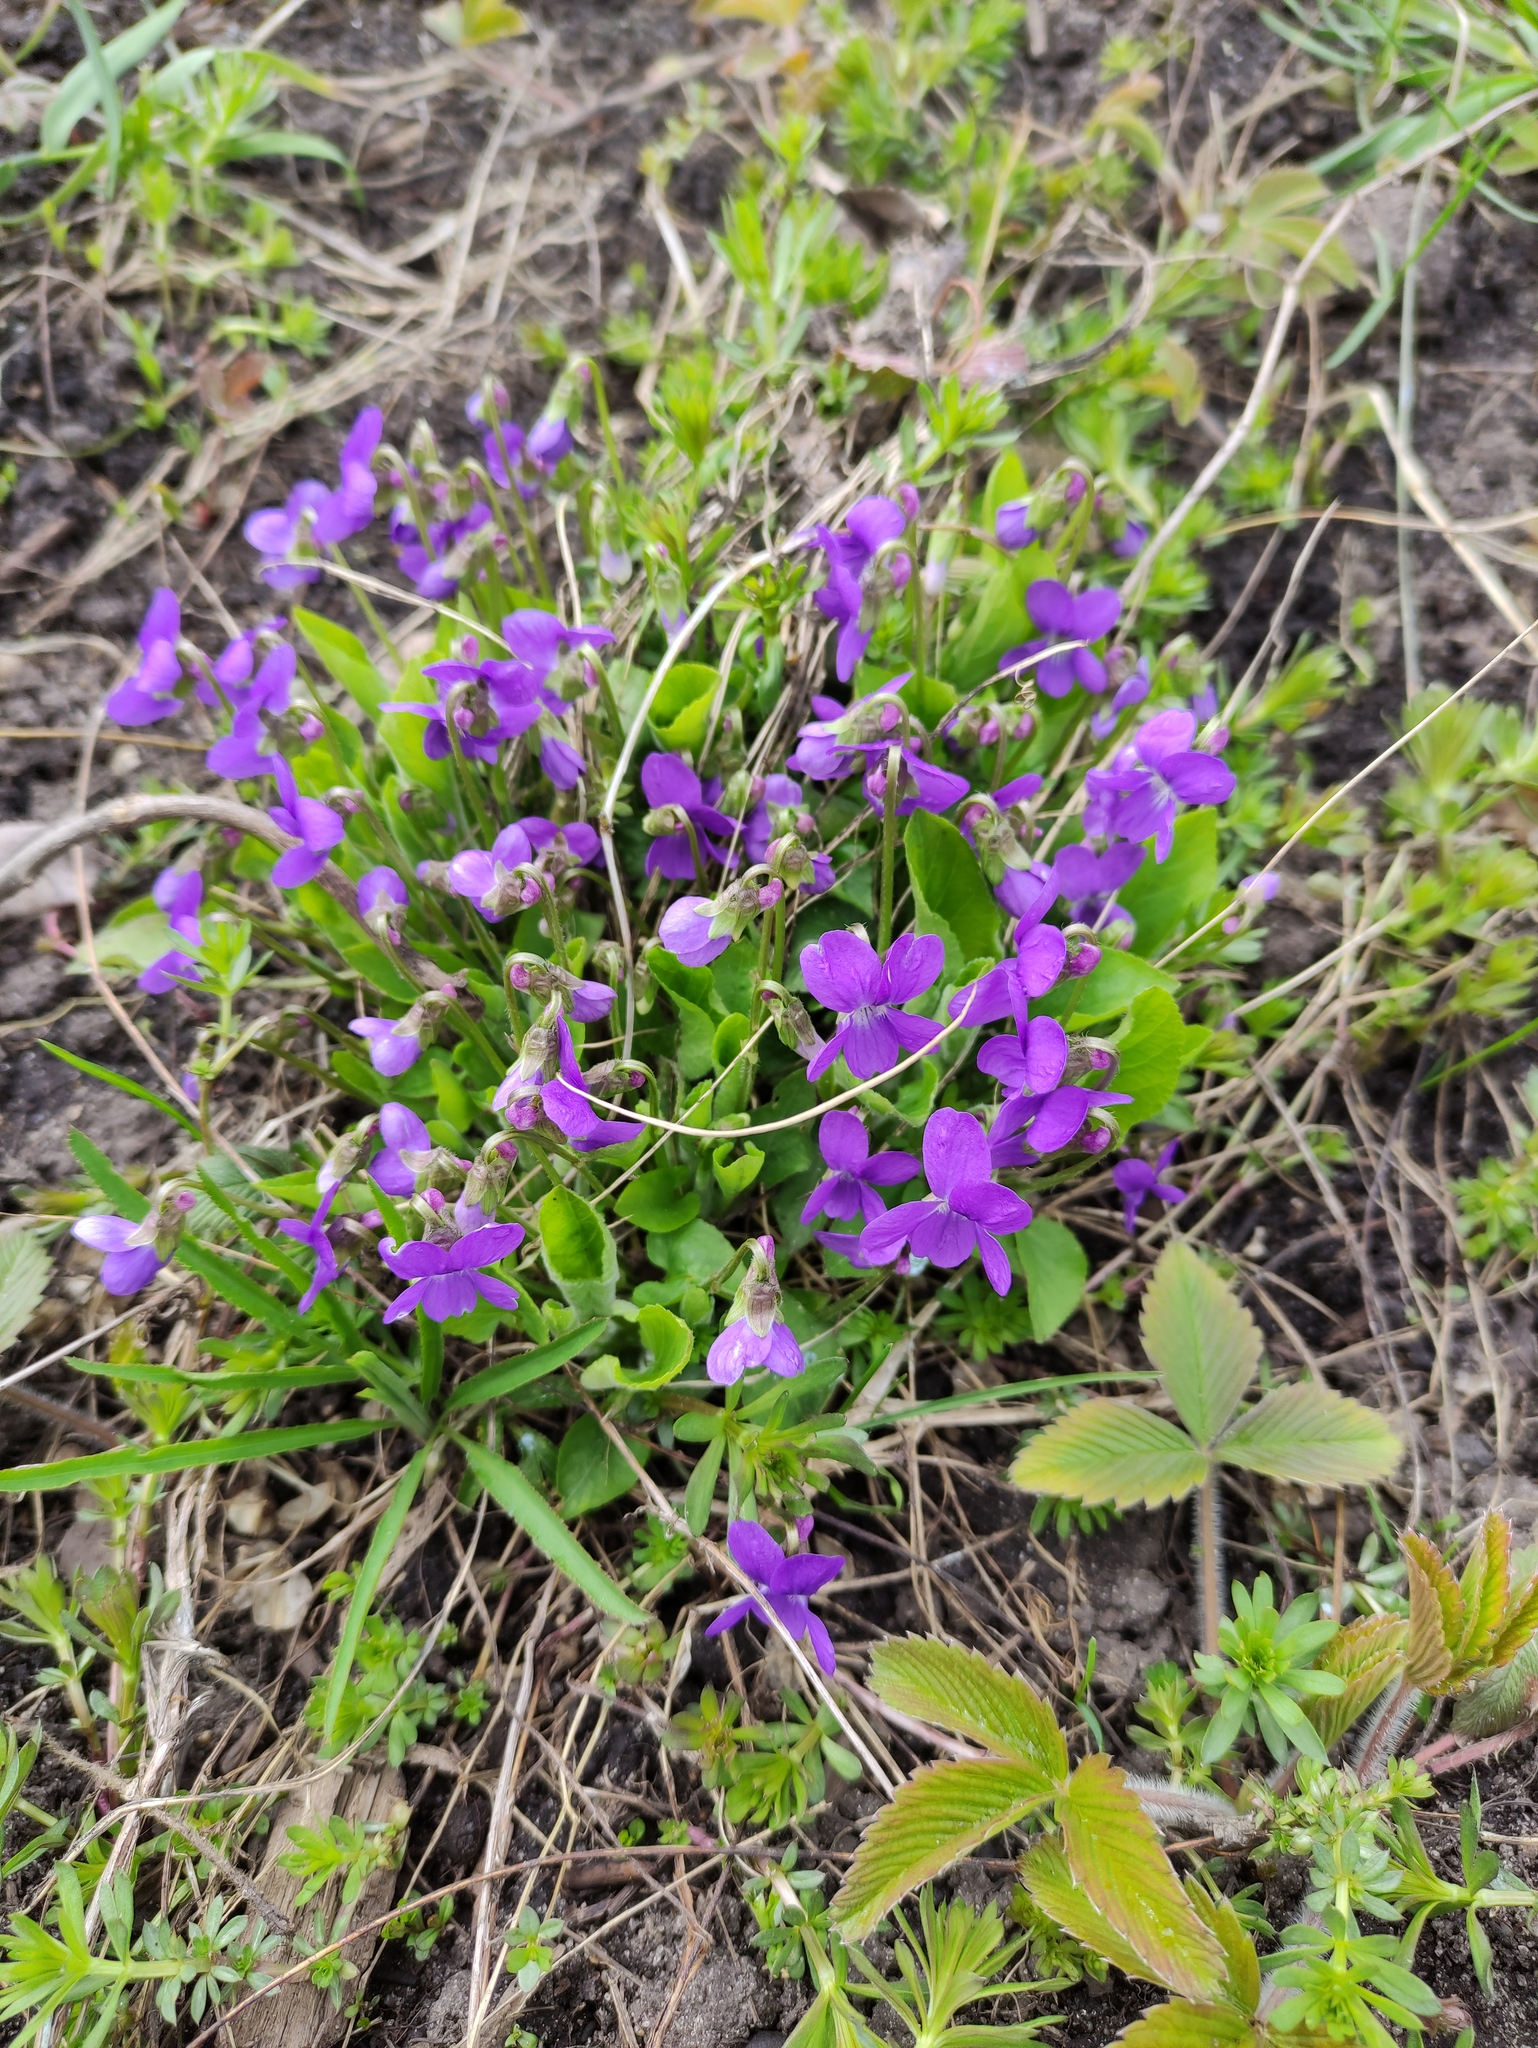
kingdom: Plantae
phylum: Tracheophyta
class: Magnoliopsida
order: Malpighiales
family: Violaceae
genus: Viola
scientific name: Viola hirta
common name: Hairy violet
